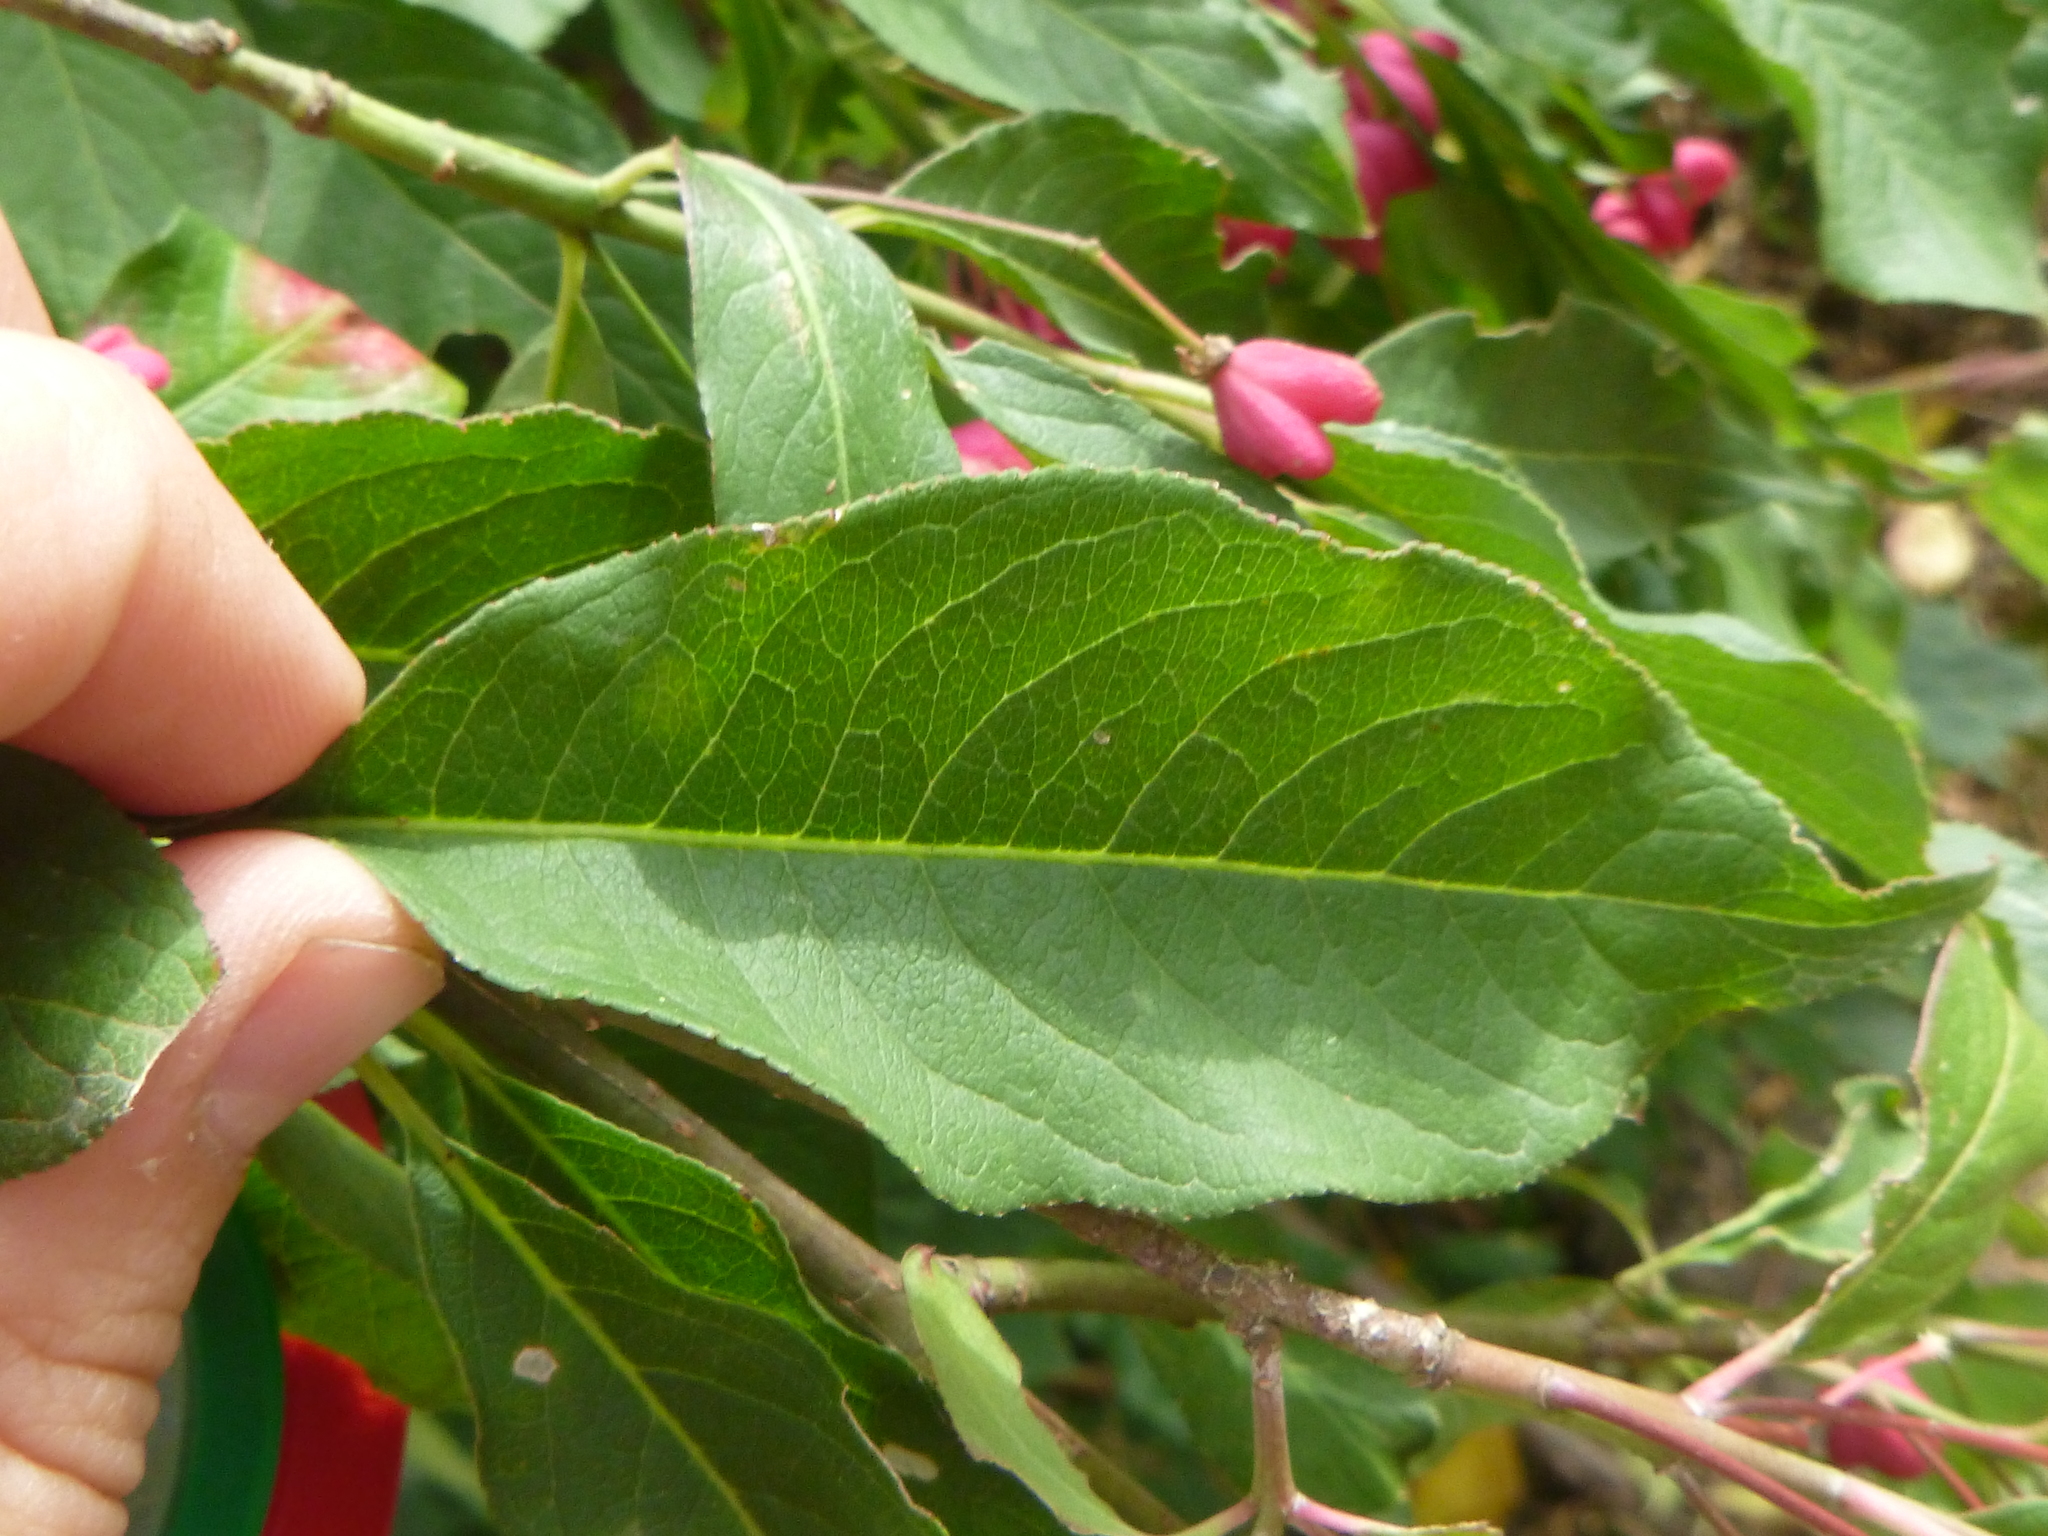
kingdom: Plantae
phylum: Tracheophyta
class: Magnoliopsida
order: Celastrales
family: Celastraceae
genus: Euonymus
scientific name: Euonymus europaeus
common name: Spindle
